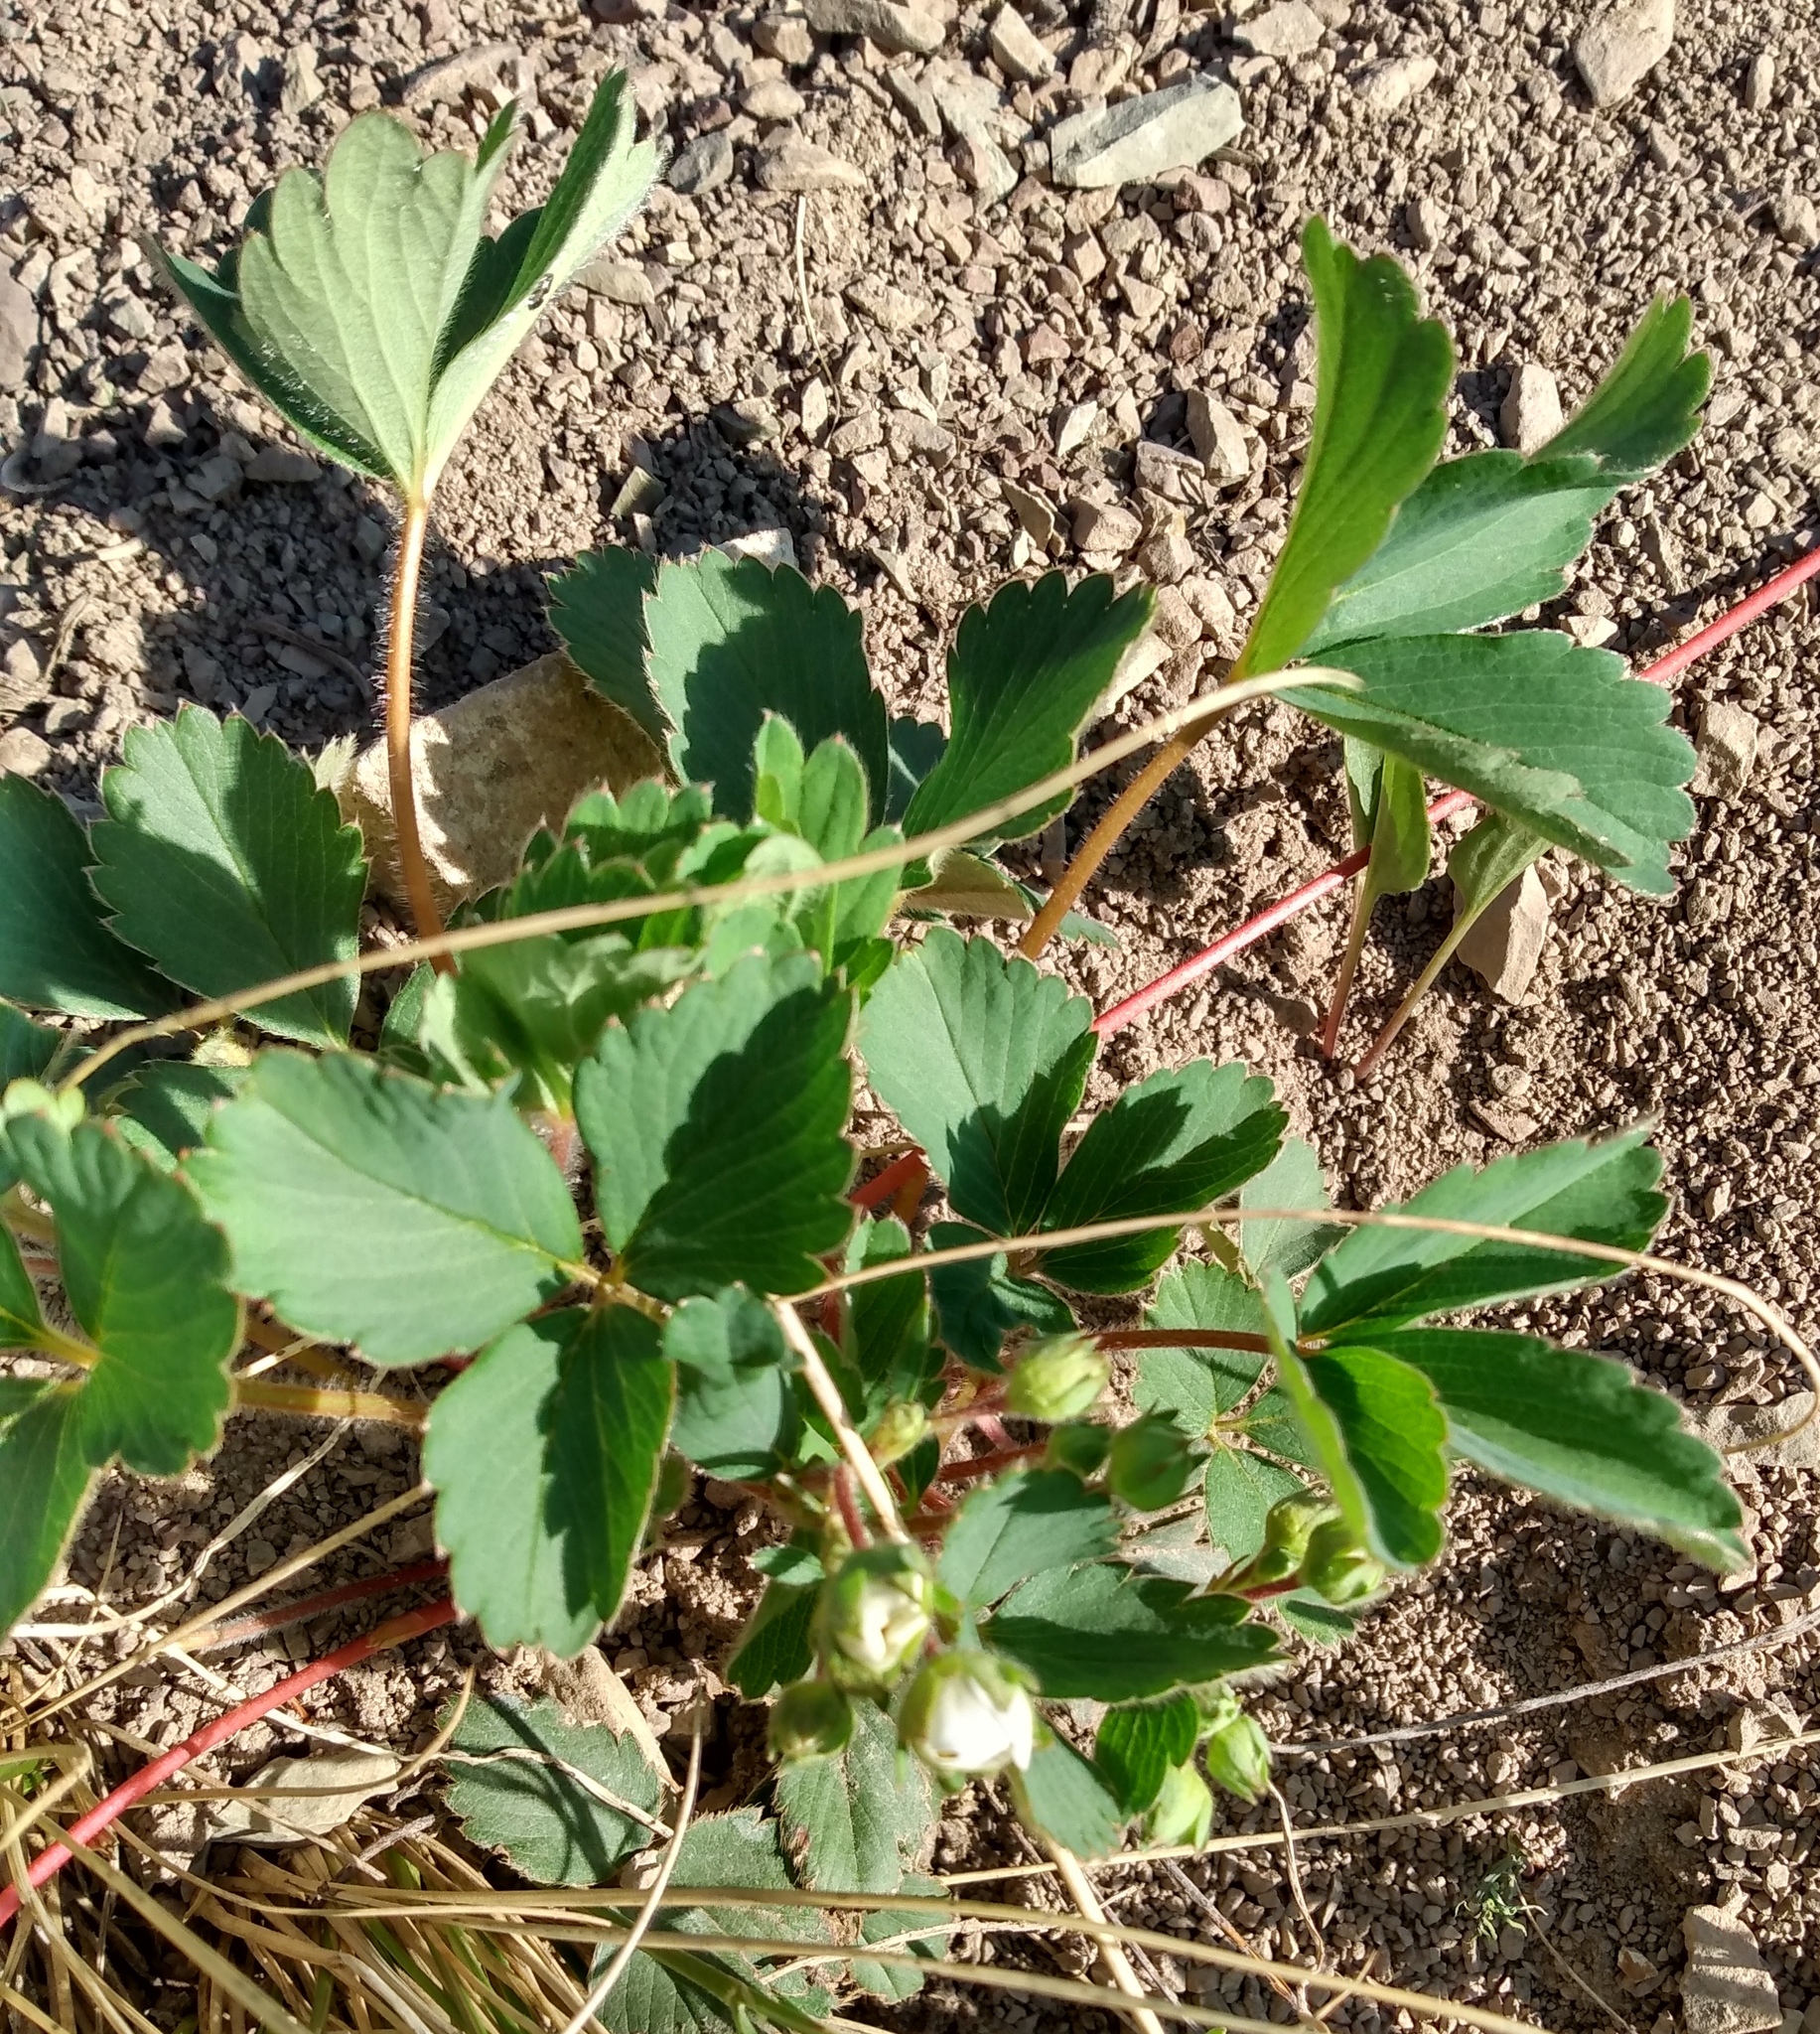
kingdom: Plantae
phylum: Tracheophyta
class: Magnoliopsida
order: Rosales
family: Rosaceae
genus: Fragaria
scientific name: Fragaria virginiana
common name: Thickleaved wild strawberry
